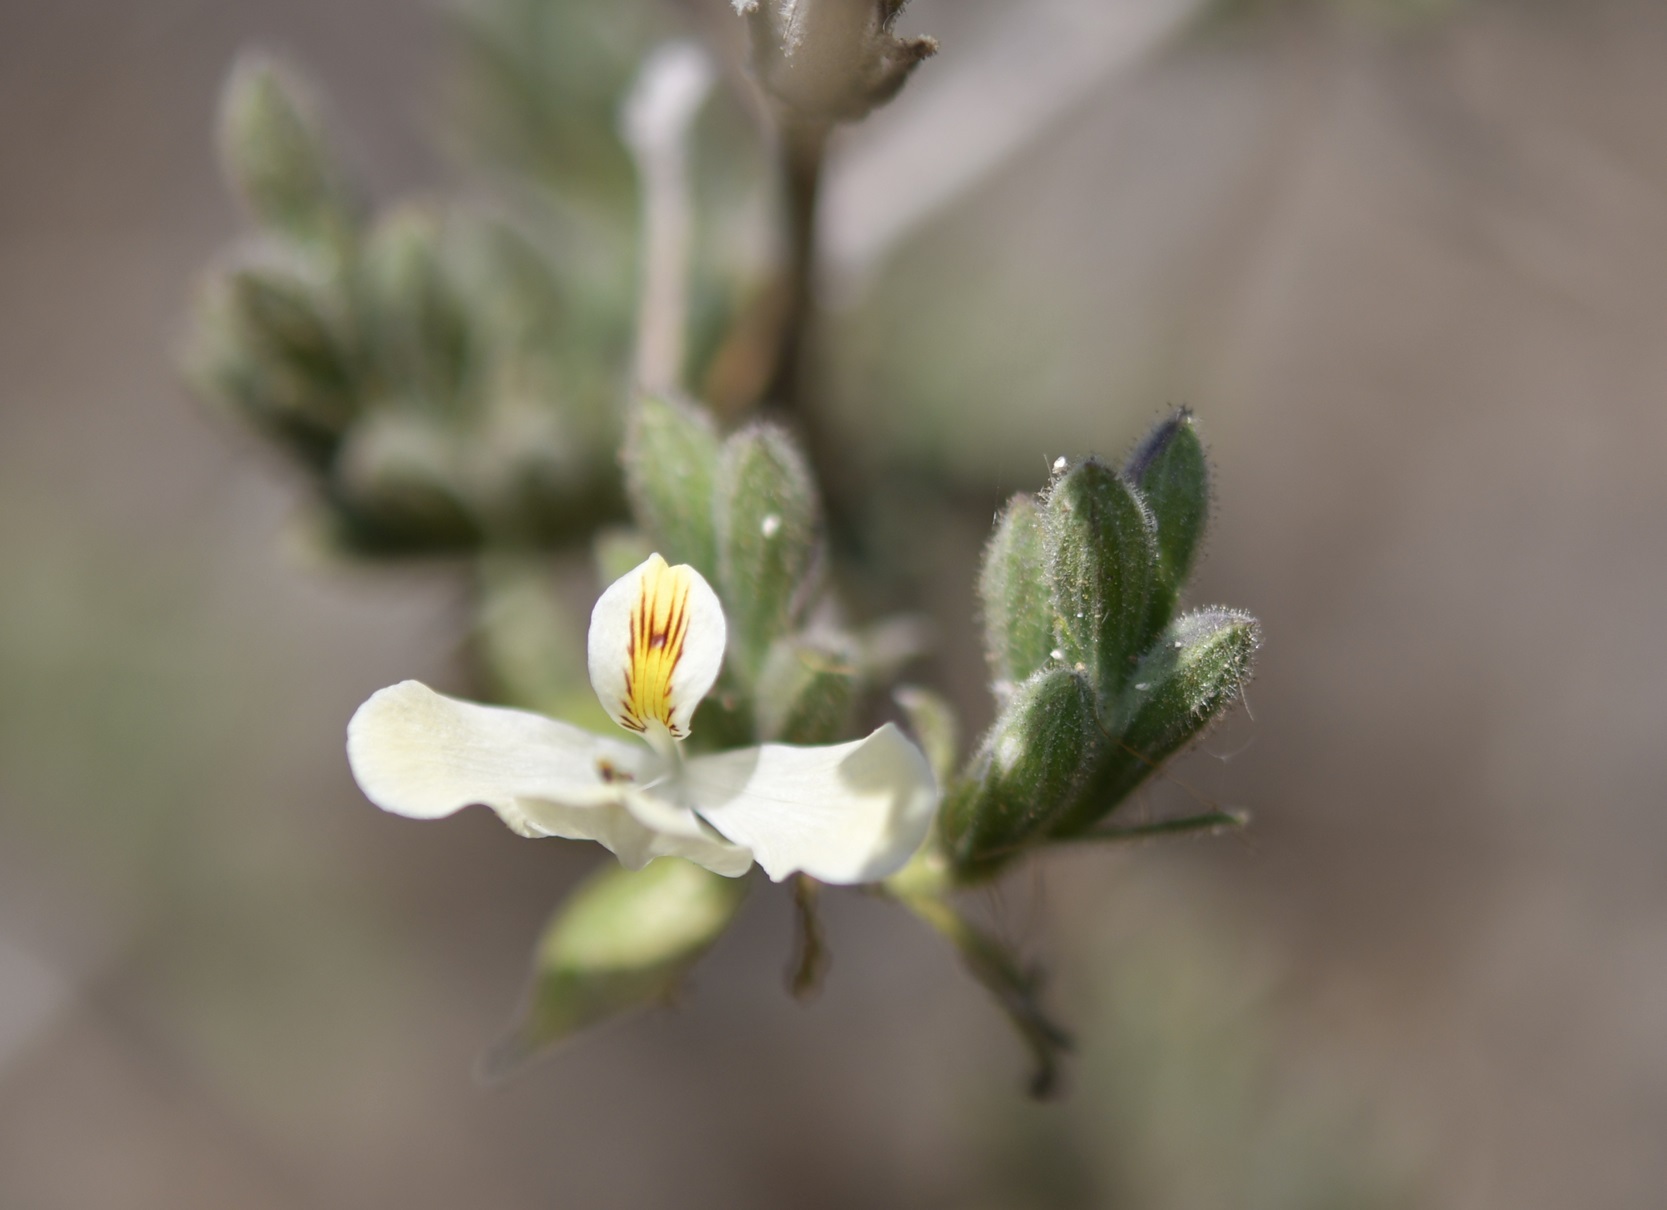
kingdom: Plantae
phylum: Tracheophyta
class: Magnoliopsida
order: Lamiales
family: Acanthaceae
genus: Henrya
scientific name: Henrya insularis
